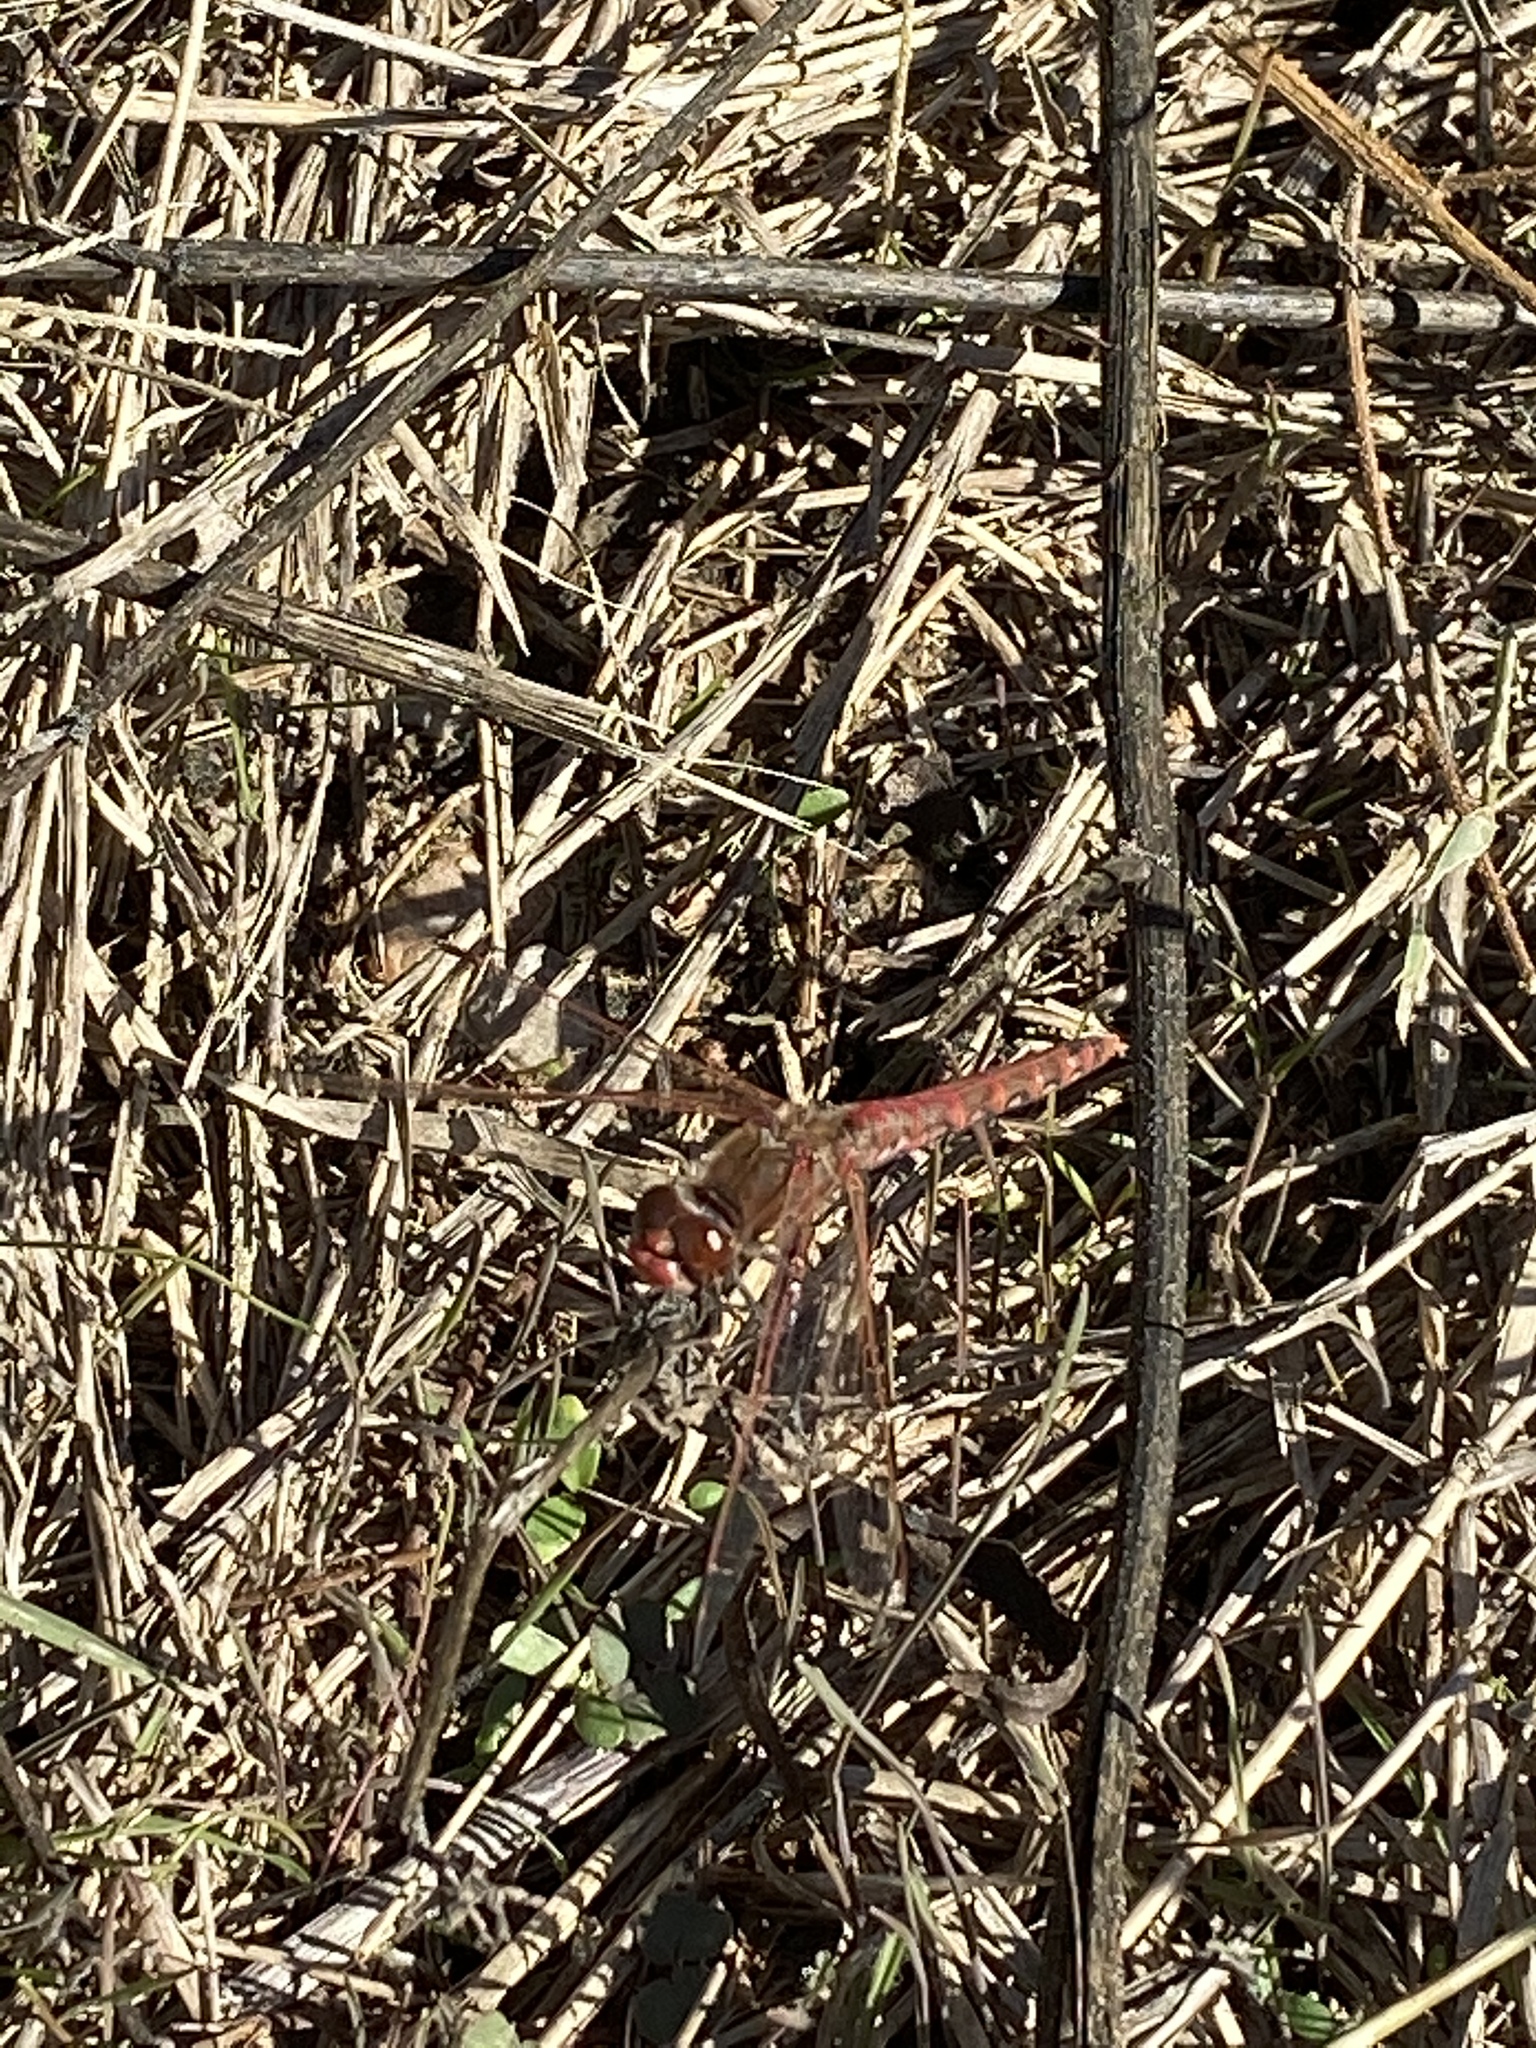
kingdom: Animalia
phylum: Arthropoda
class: Insecta
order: Odonata
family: Libellulidae
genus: Sympetrum
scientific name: Sympetrum corruptum
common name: Variegated meadowhawk
